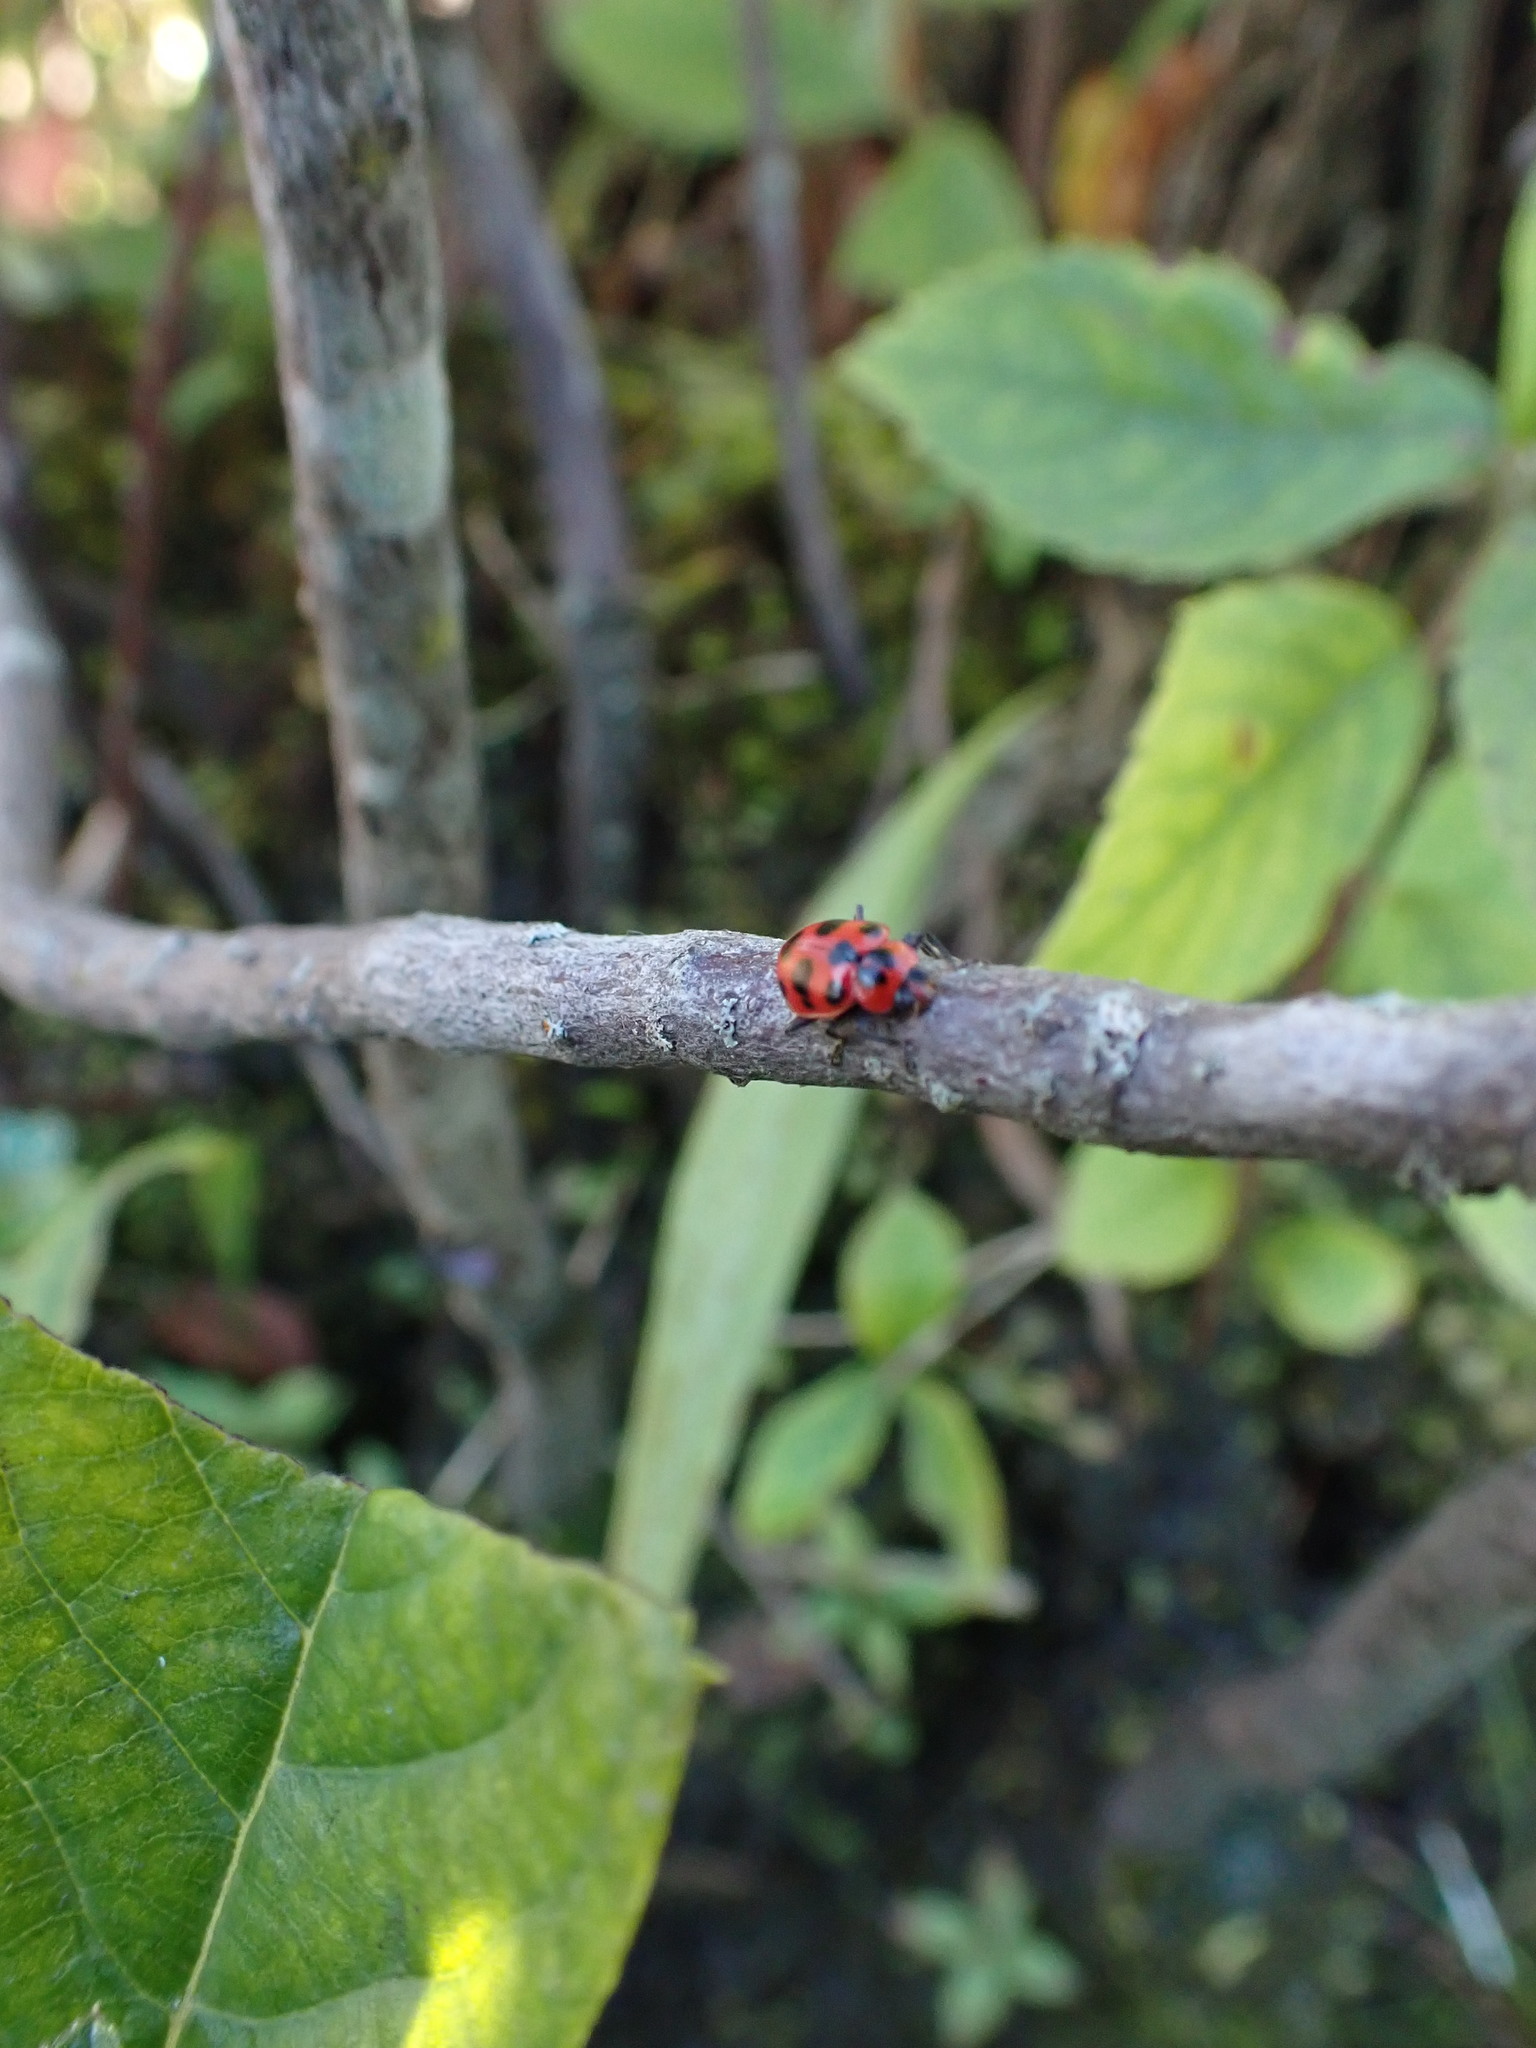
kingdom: Animalia
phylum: Arthropoda
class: Insecta
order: Coleoptera
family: Coccinellidae
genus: Coleomegilla
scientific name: Coleomegilla maculata
